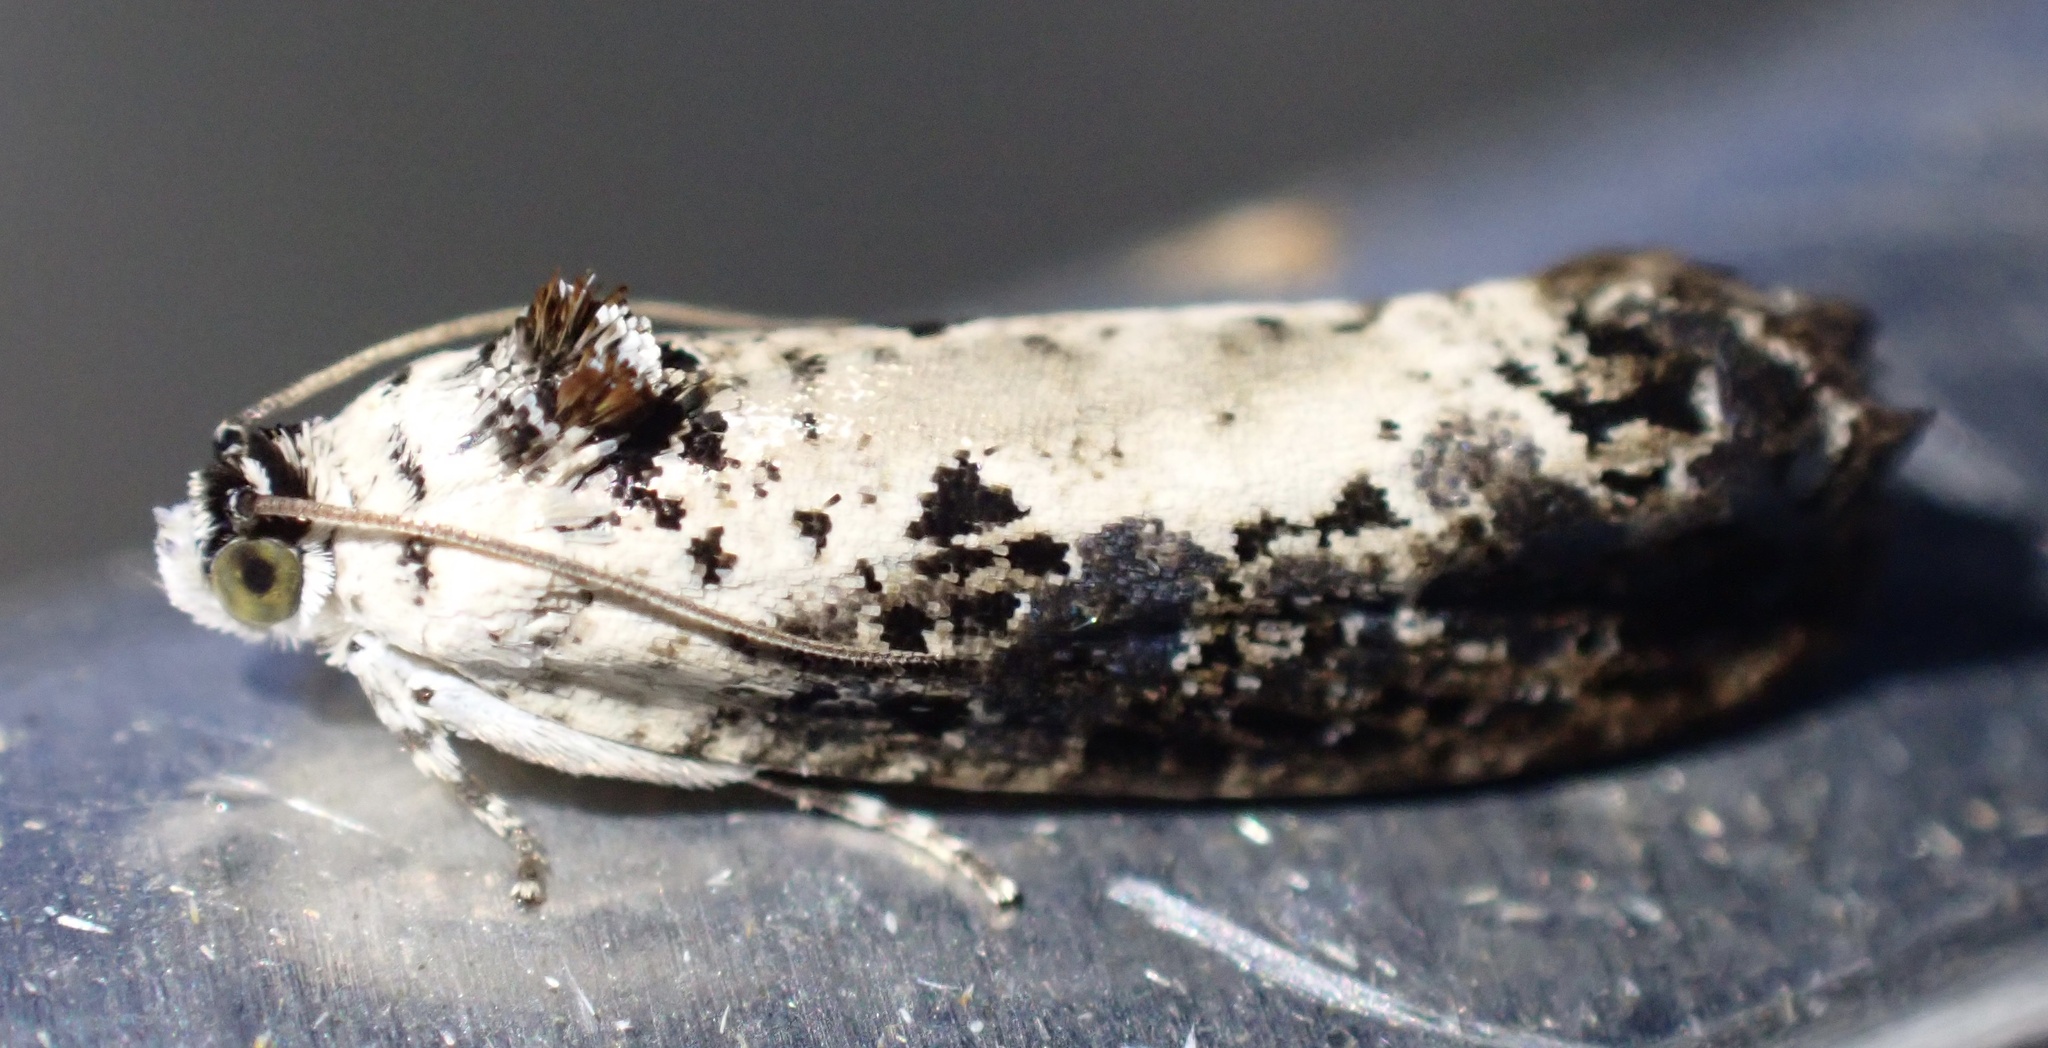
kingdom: Animalia
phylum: Arthropoda
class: Insecta
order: Lepidoptera
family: Tortricidae
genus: Hedya
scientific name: Hedya salicella
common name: Large tortricid moth
